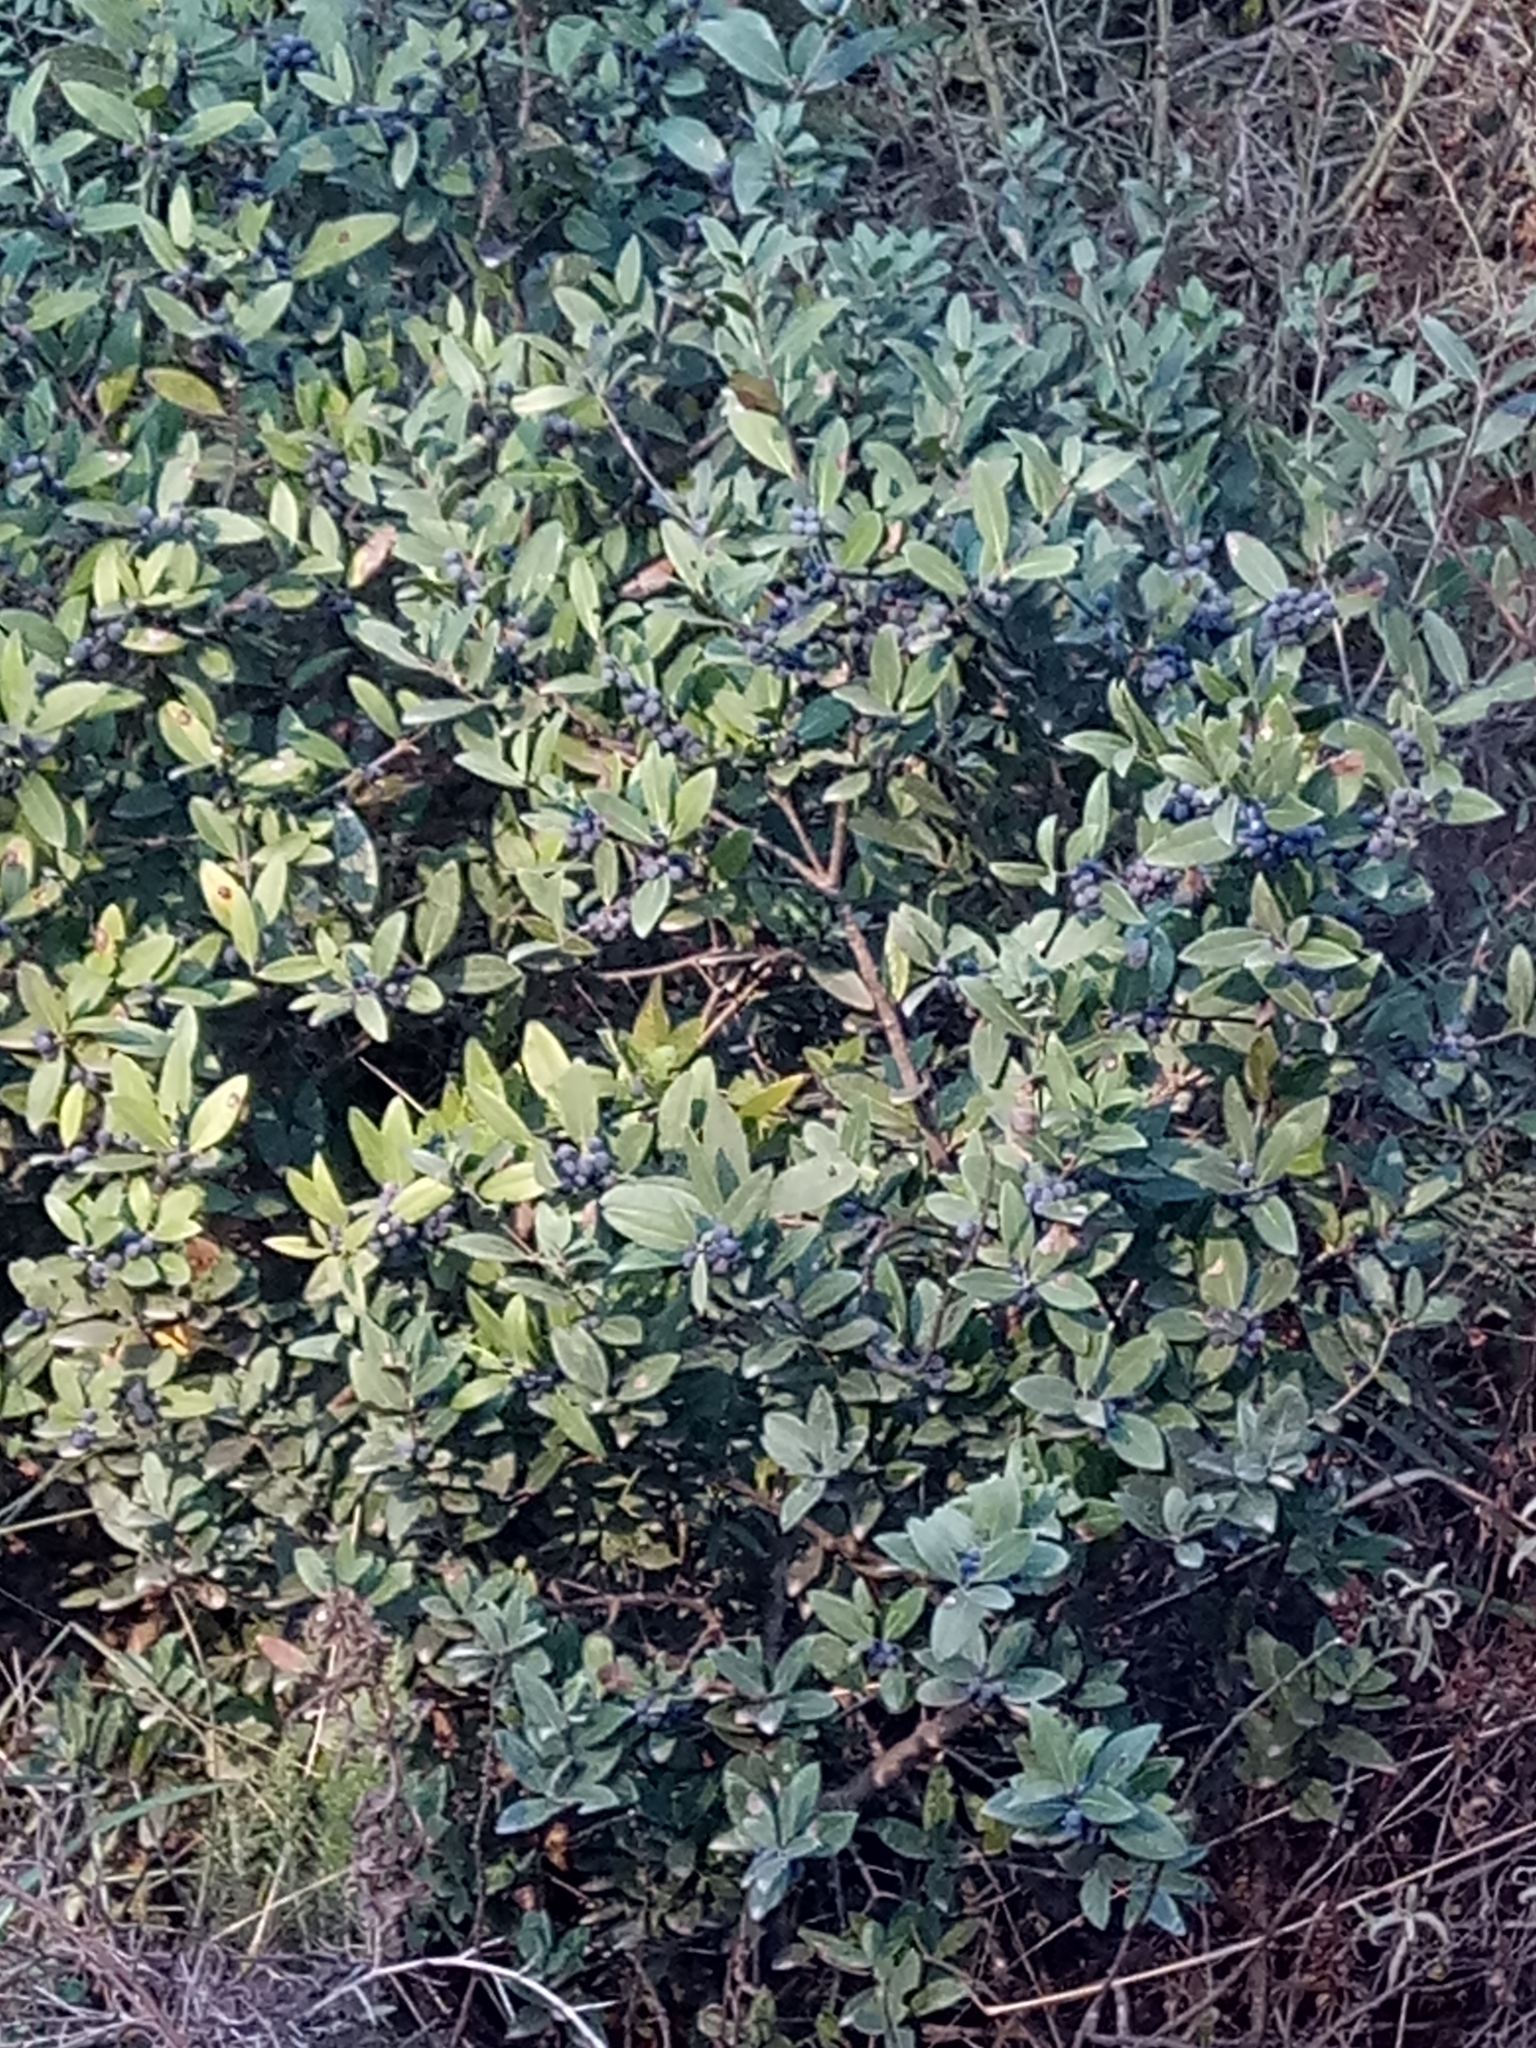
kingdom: Plantae
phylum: Tracheophyta
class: Magnoliopsida
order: Lamiales
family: Oleaceae
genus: Phillyrea
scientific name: Phillyrea latifolia
